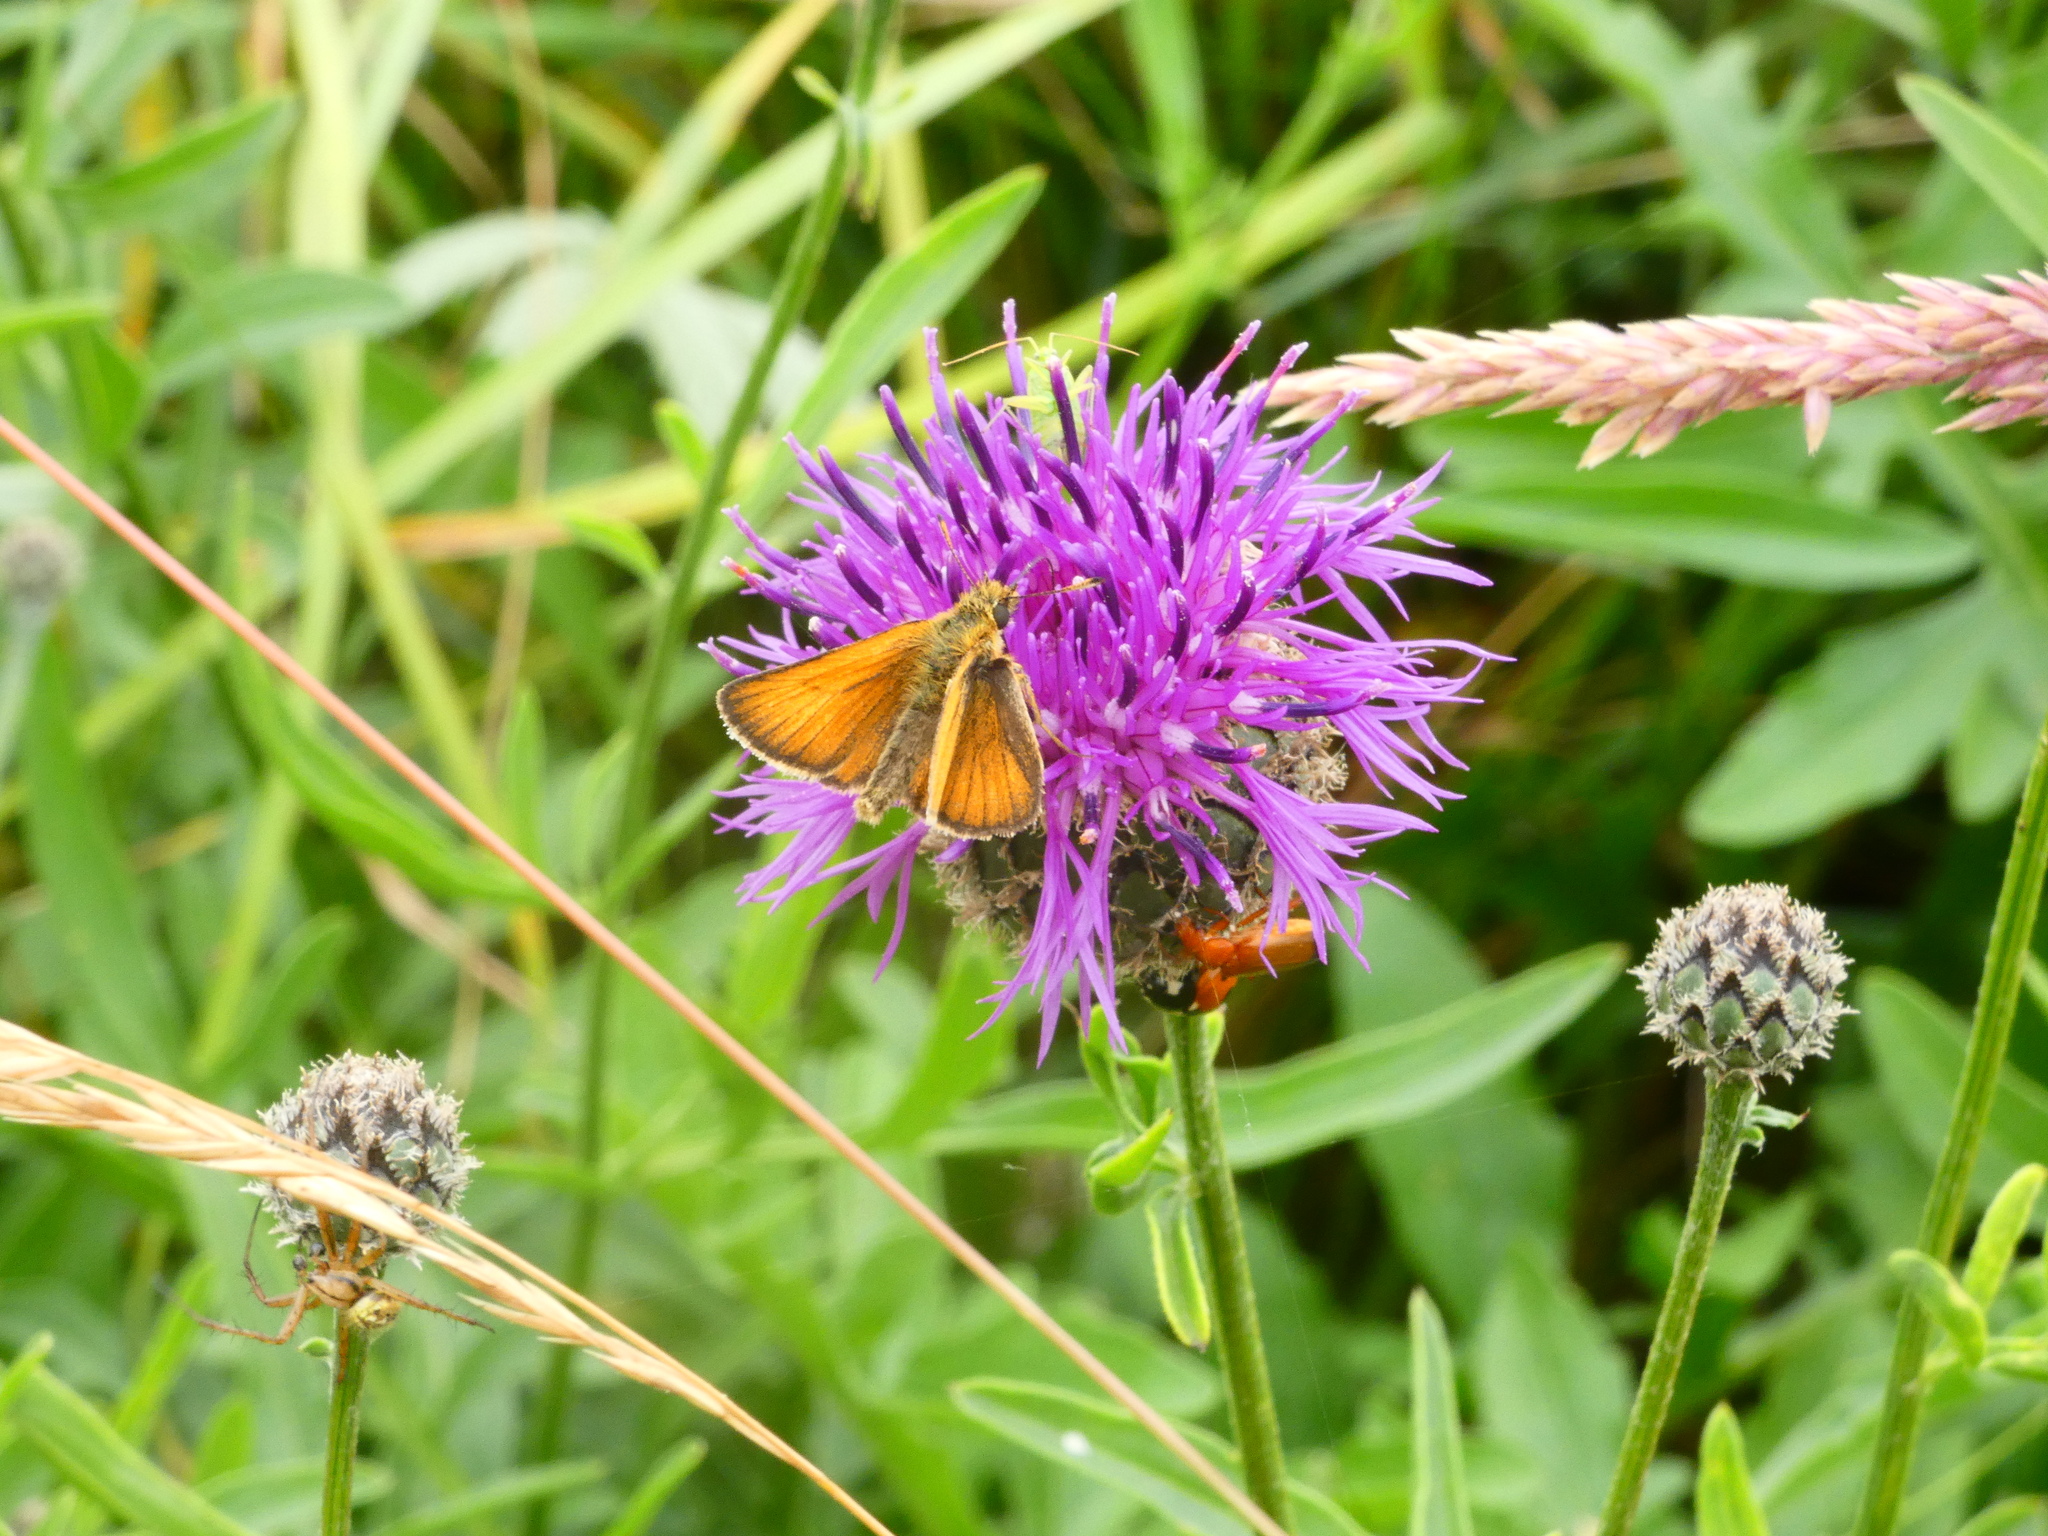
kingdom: Animalia
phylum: Arthropoda
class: Insecta
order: Lepidoptera
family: Hesperiidae
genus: Thymelicus
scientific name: Thymelicus lineola
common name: Essex skipper
